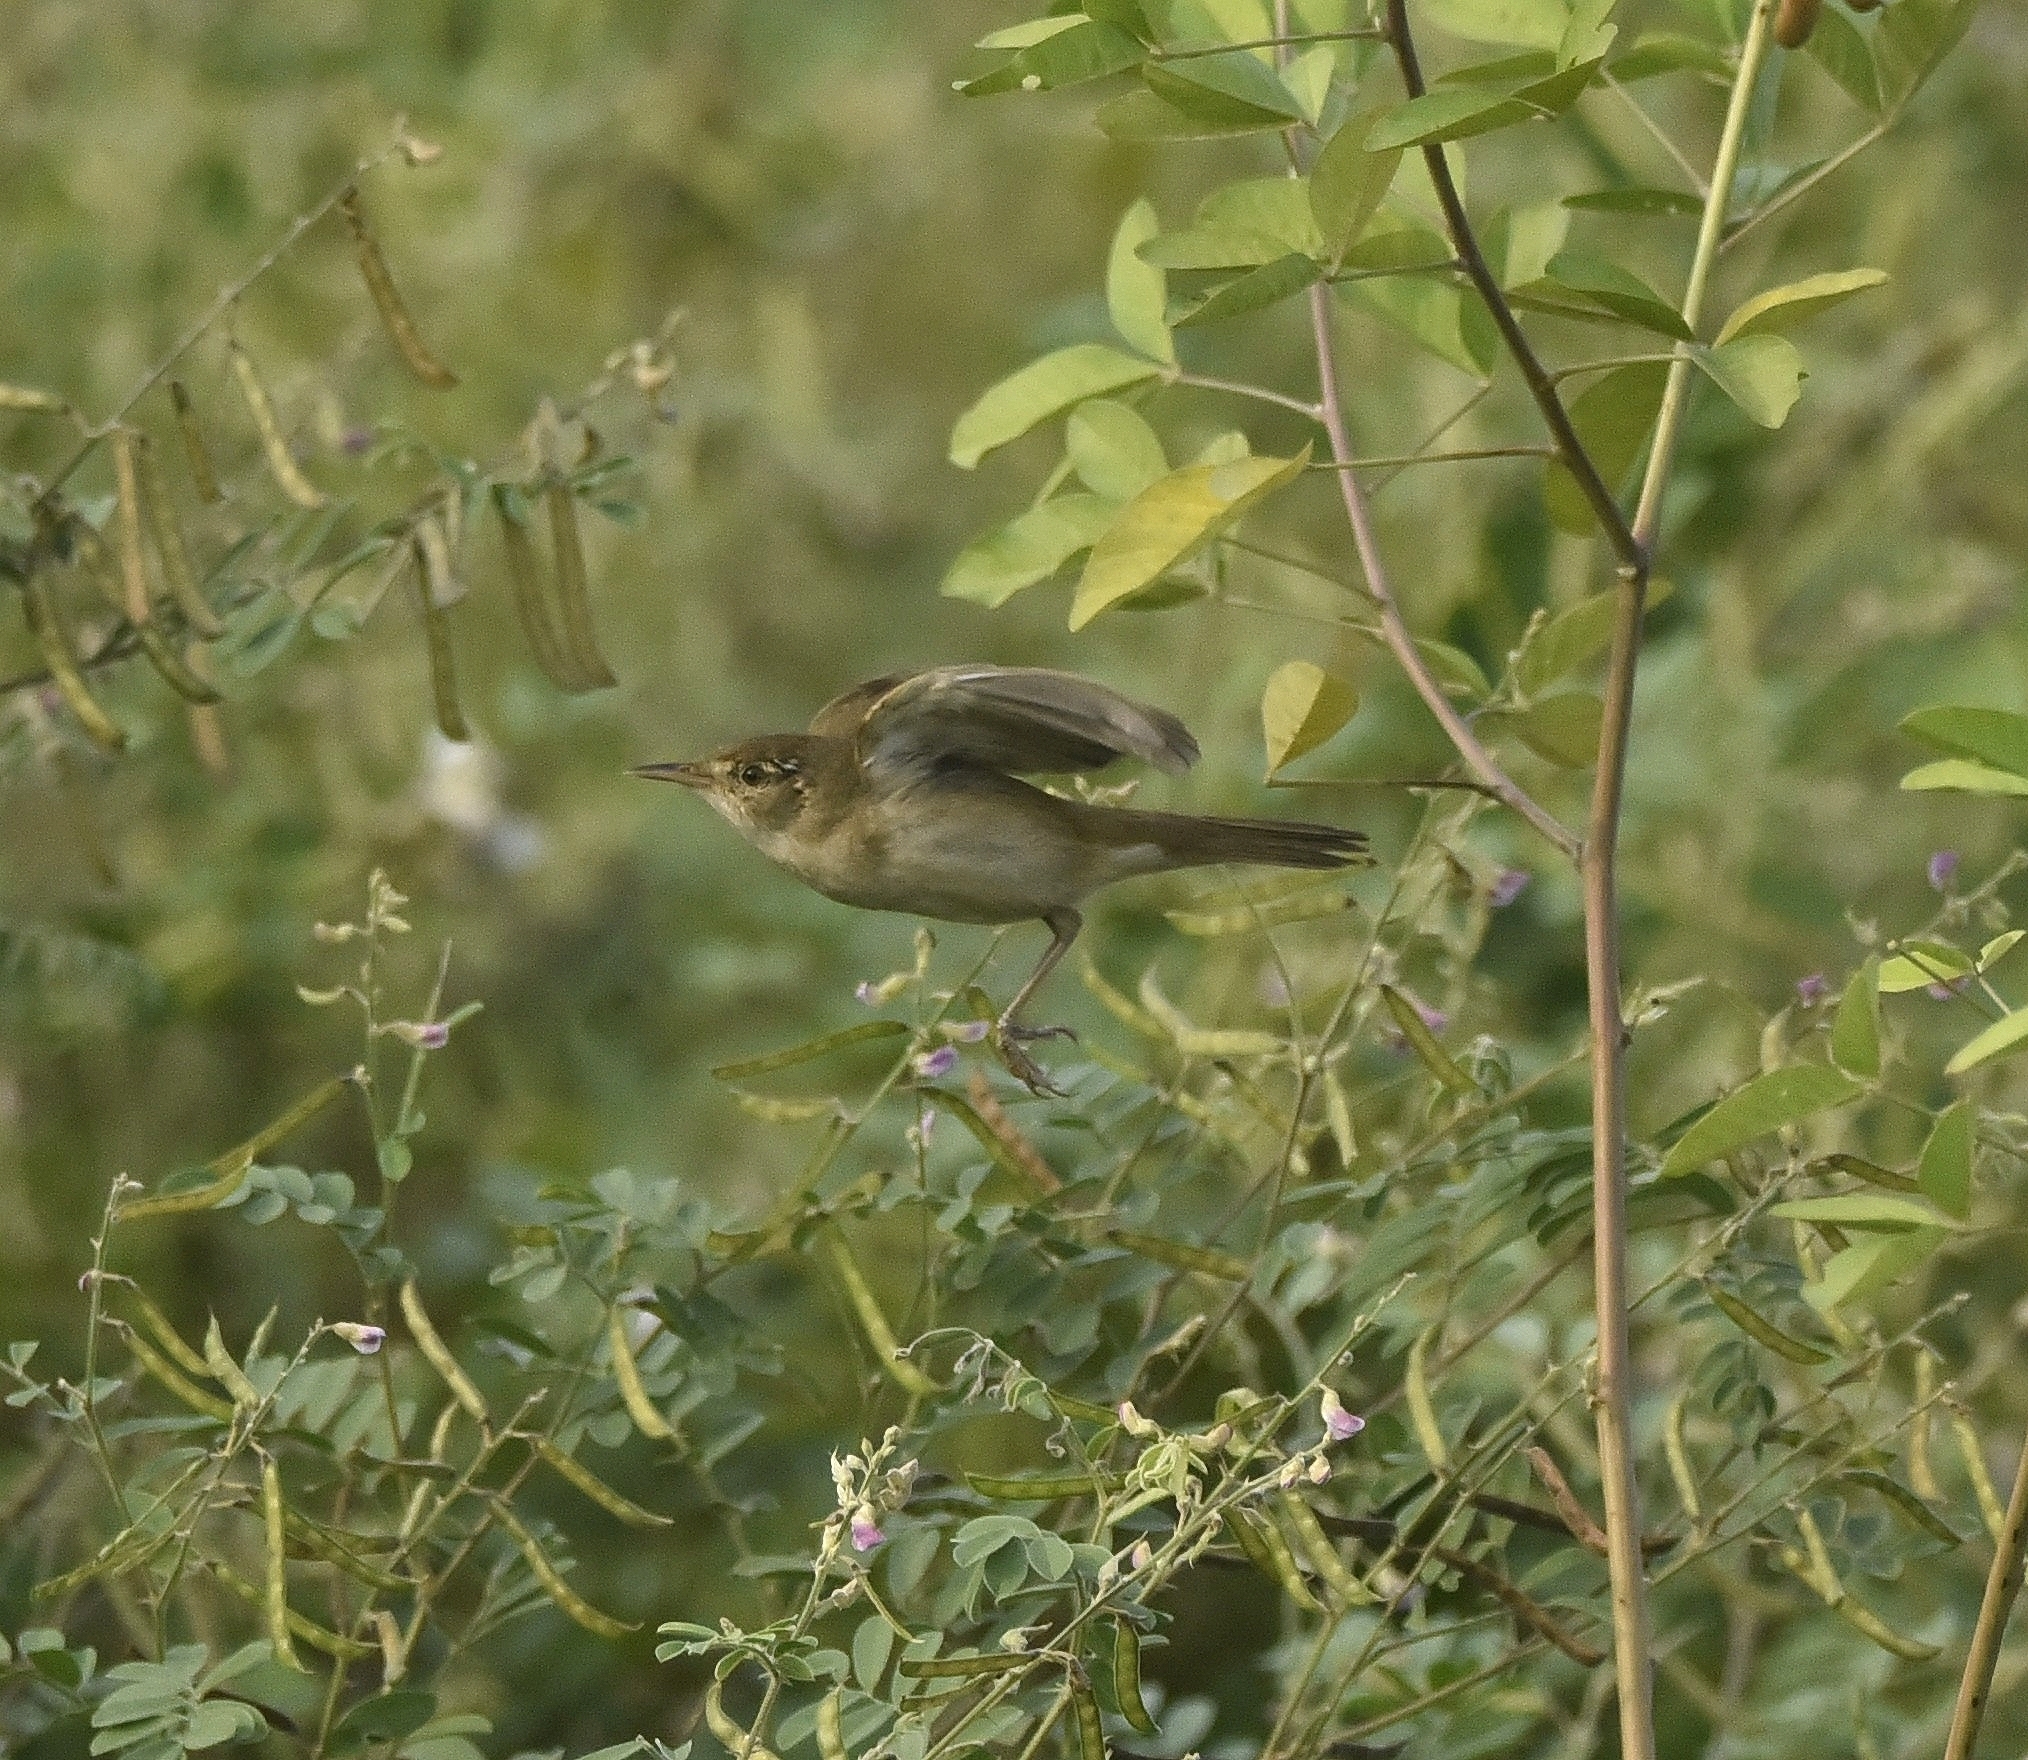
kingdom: Animalia
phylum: Chordata
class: Aves
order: Passeriformes
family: Acrocephalidae
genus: Acrocephalus
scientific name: Acrocephalus dumetorum
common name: Blyth's reed warbler
